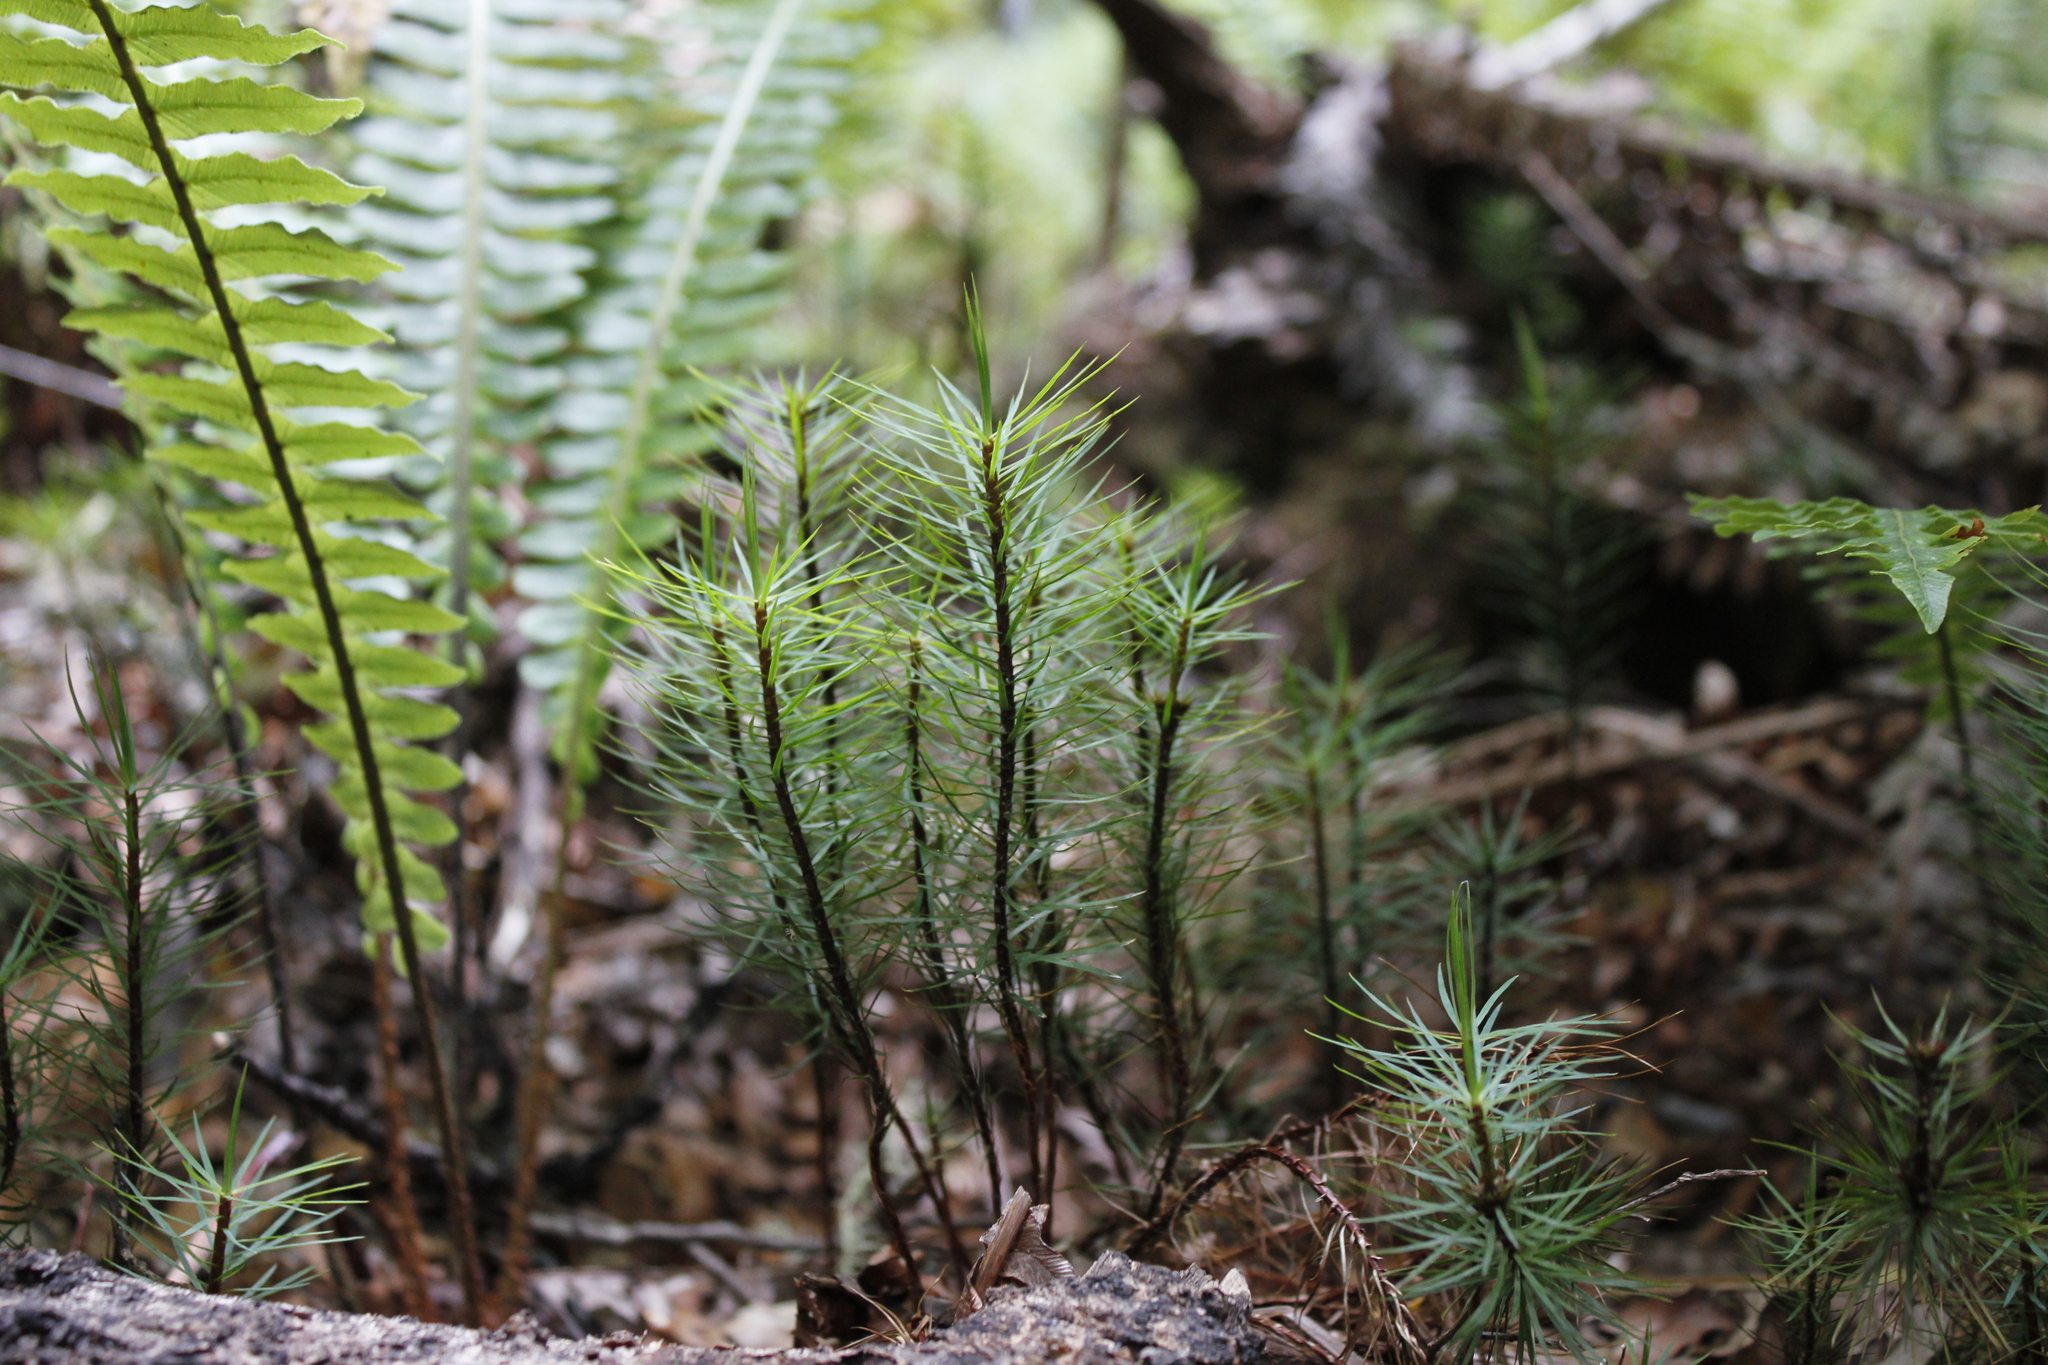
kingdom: Plantae
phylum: Bryophyta
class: Polytrichopsida
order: Polytrichales
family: Polytrichaceae
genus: Dawsonia
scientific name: Dawsonia superba
